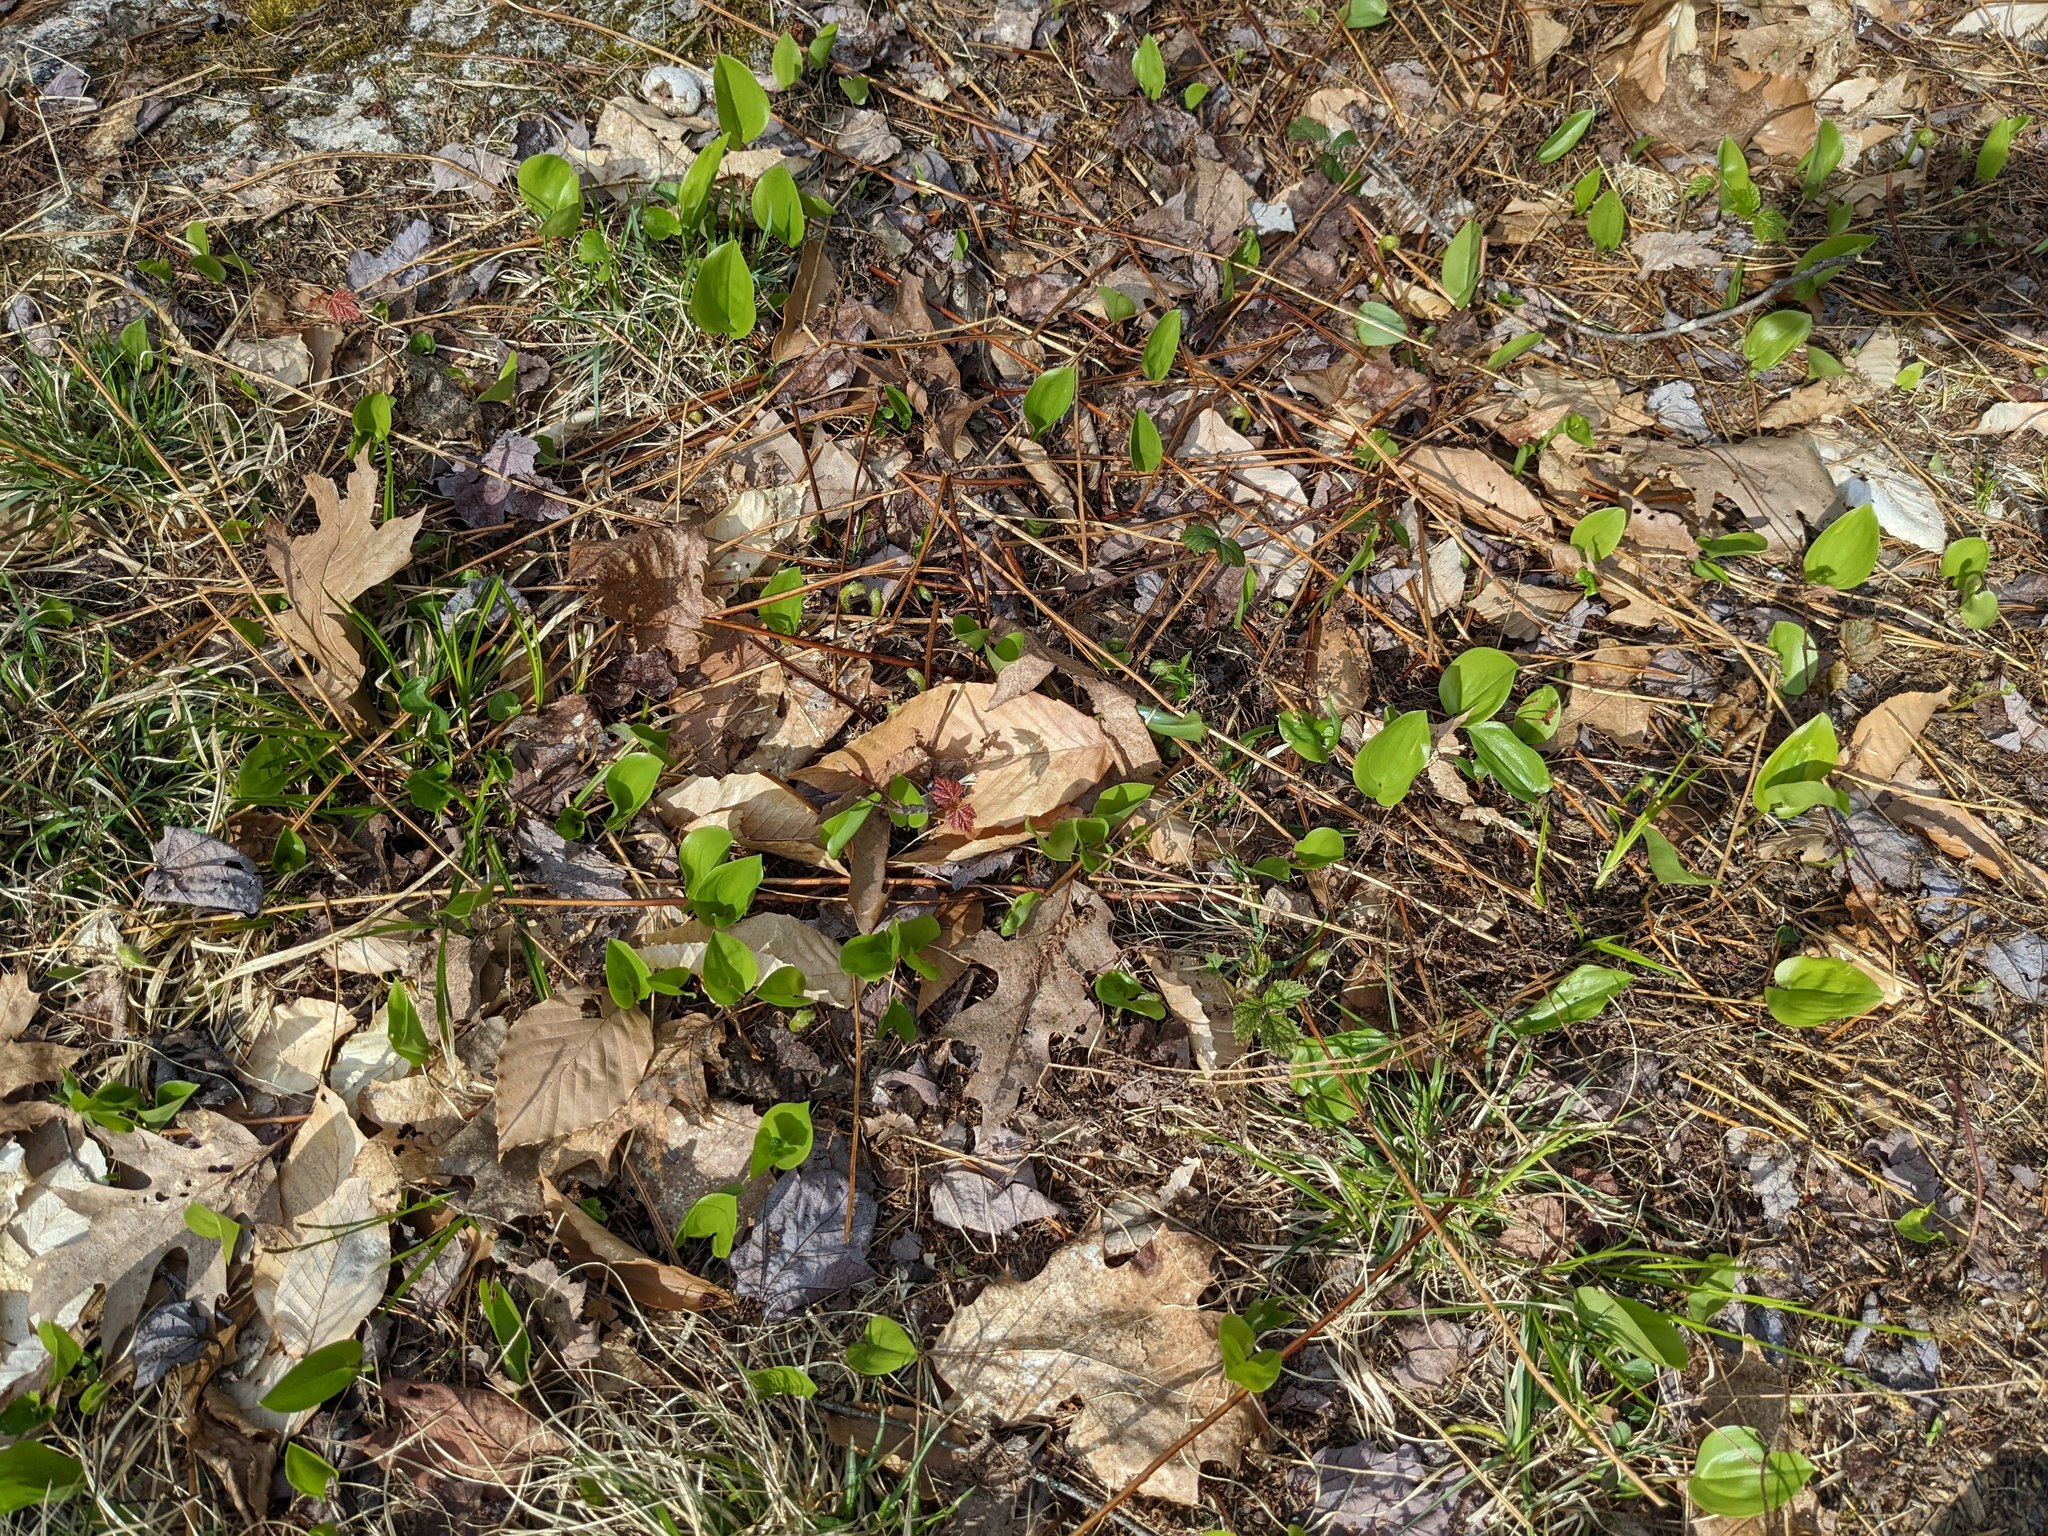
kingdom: Plantae
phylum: Tracheophyta
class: Liliopsida
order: Asparagales
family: Asparagaceae
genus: Maianthemum
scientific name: Maianthemum canadense
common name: False lily-of-the-valley
